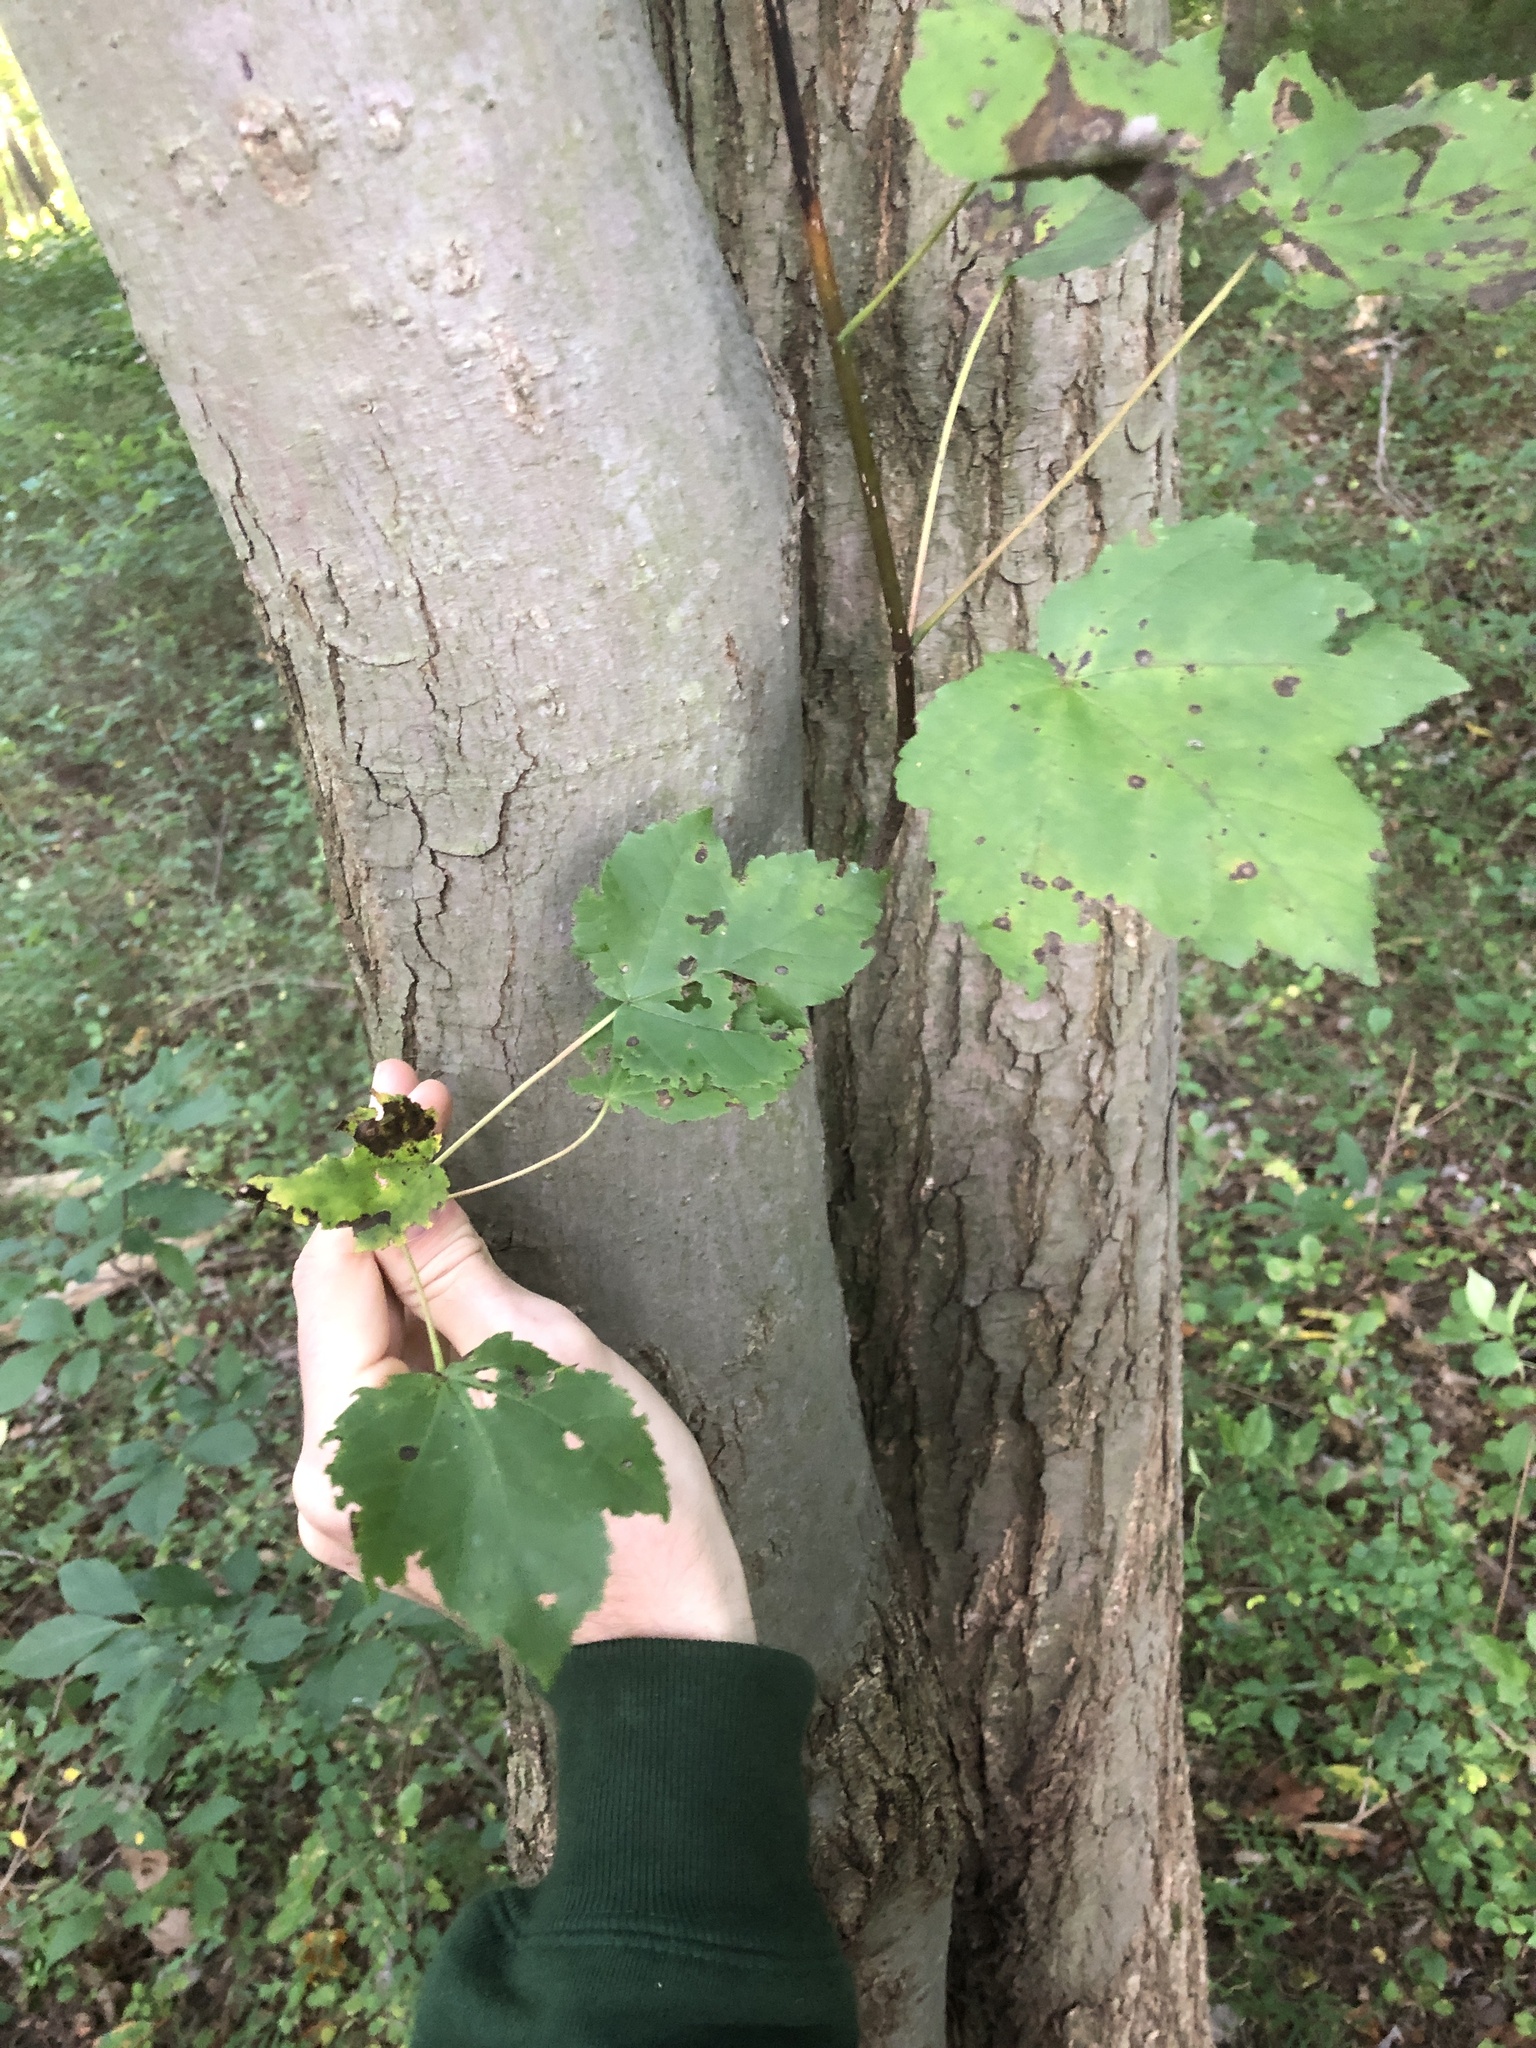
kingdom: Plantae
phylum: Tracheophyta
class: Magnoliopsida
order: Sapindales
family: Sapindaceae
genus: Acer
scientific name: Acer rubrum
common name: Red maple
